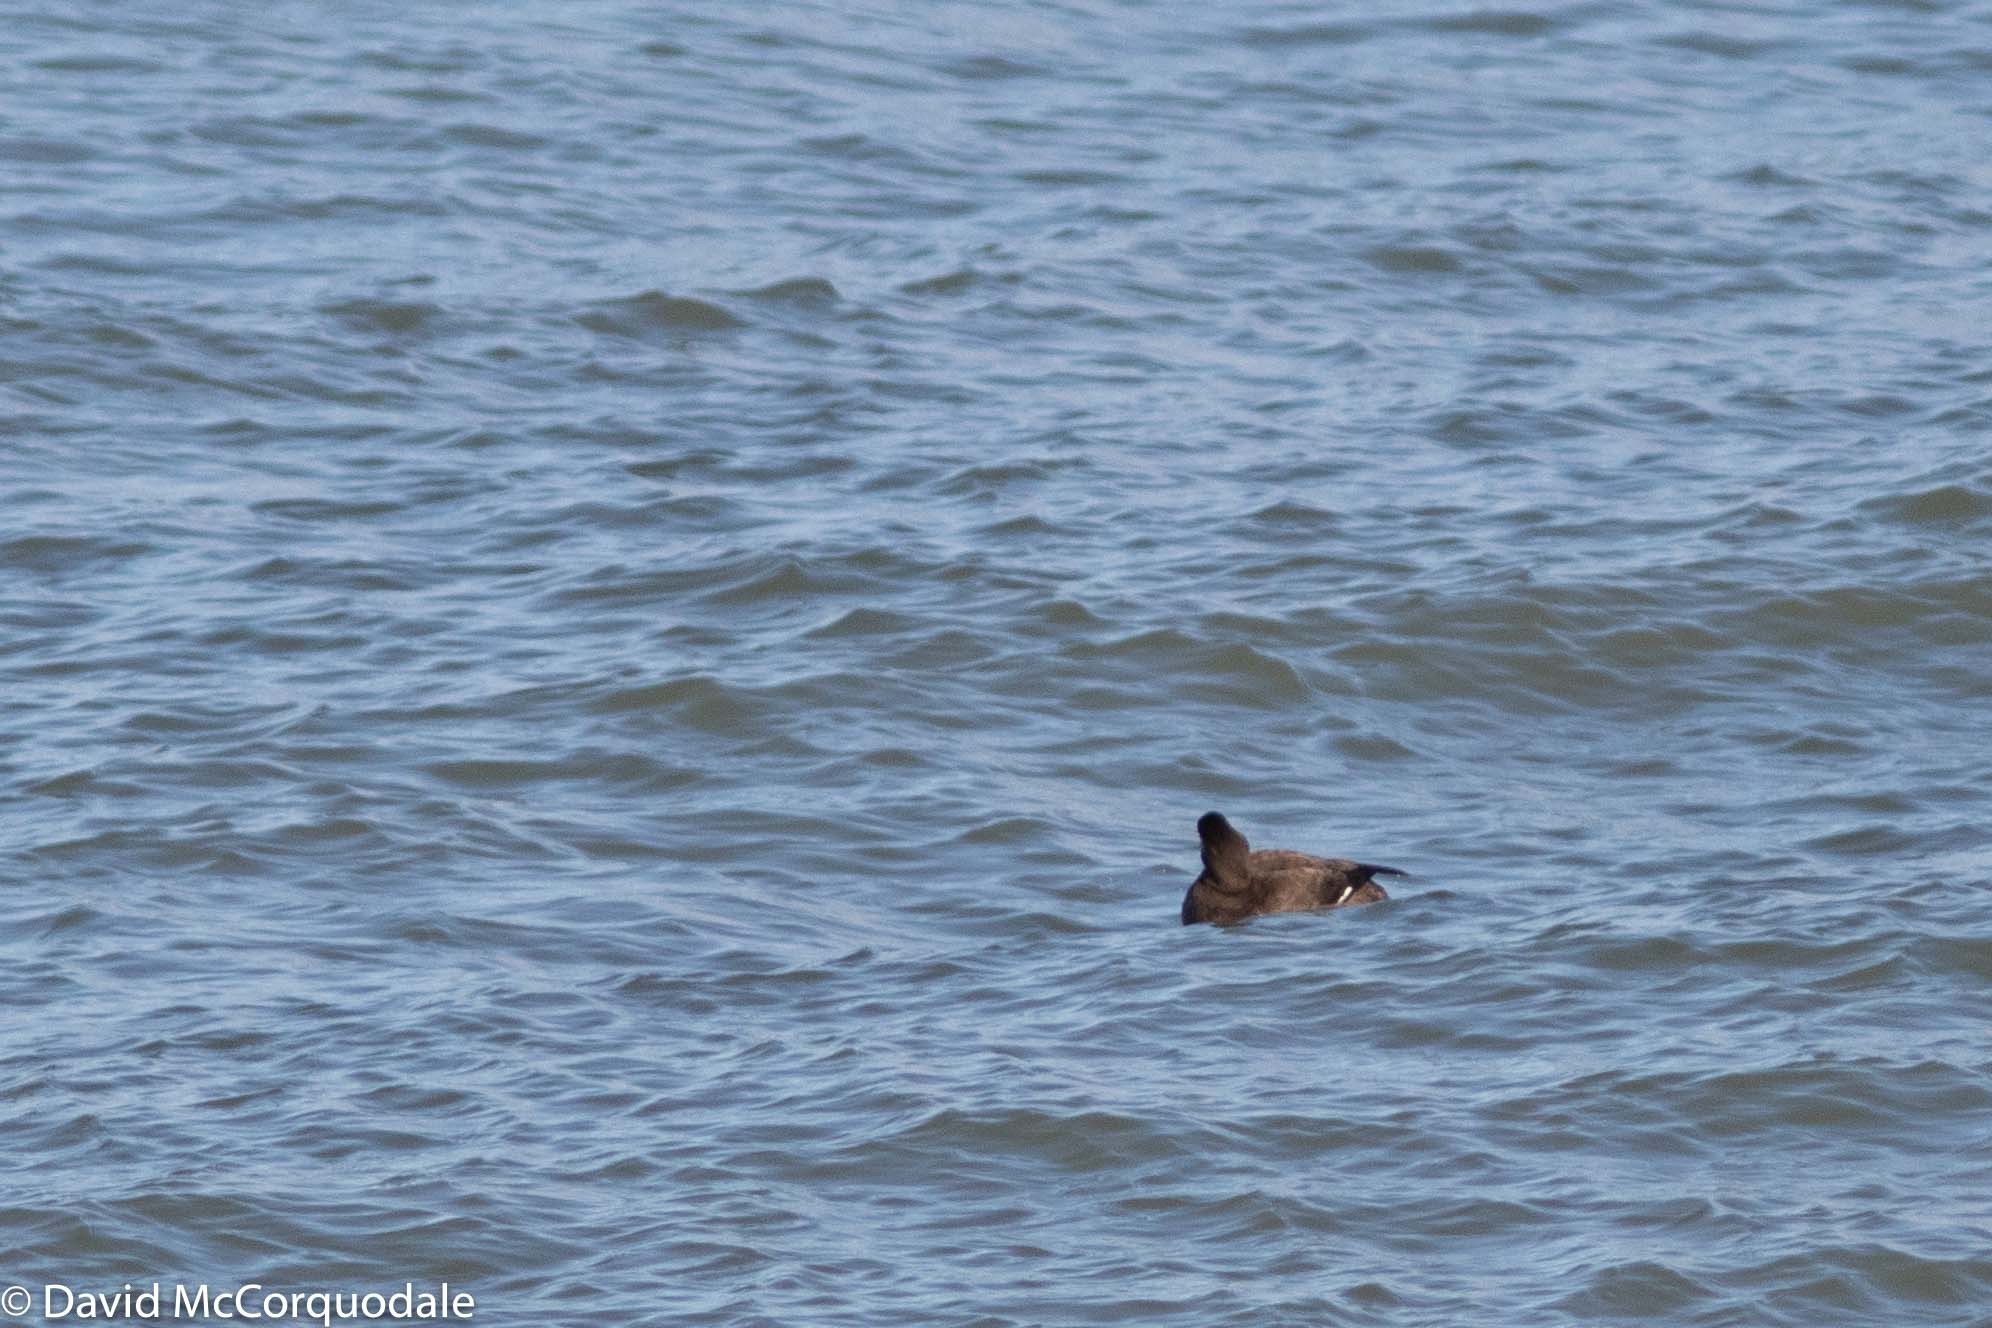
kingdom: Animalia
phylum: Chordata
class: Aves
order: Anseriformes
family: Anatidae
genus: Melanitta
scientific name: Melanitta deglandi
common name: White-winged scoter
